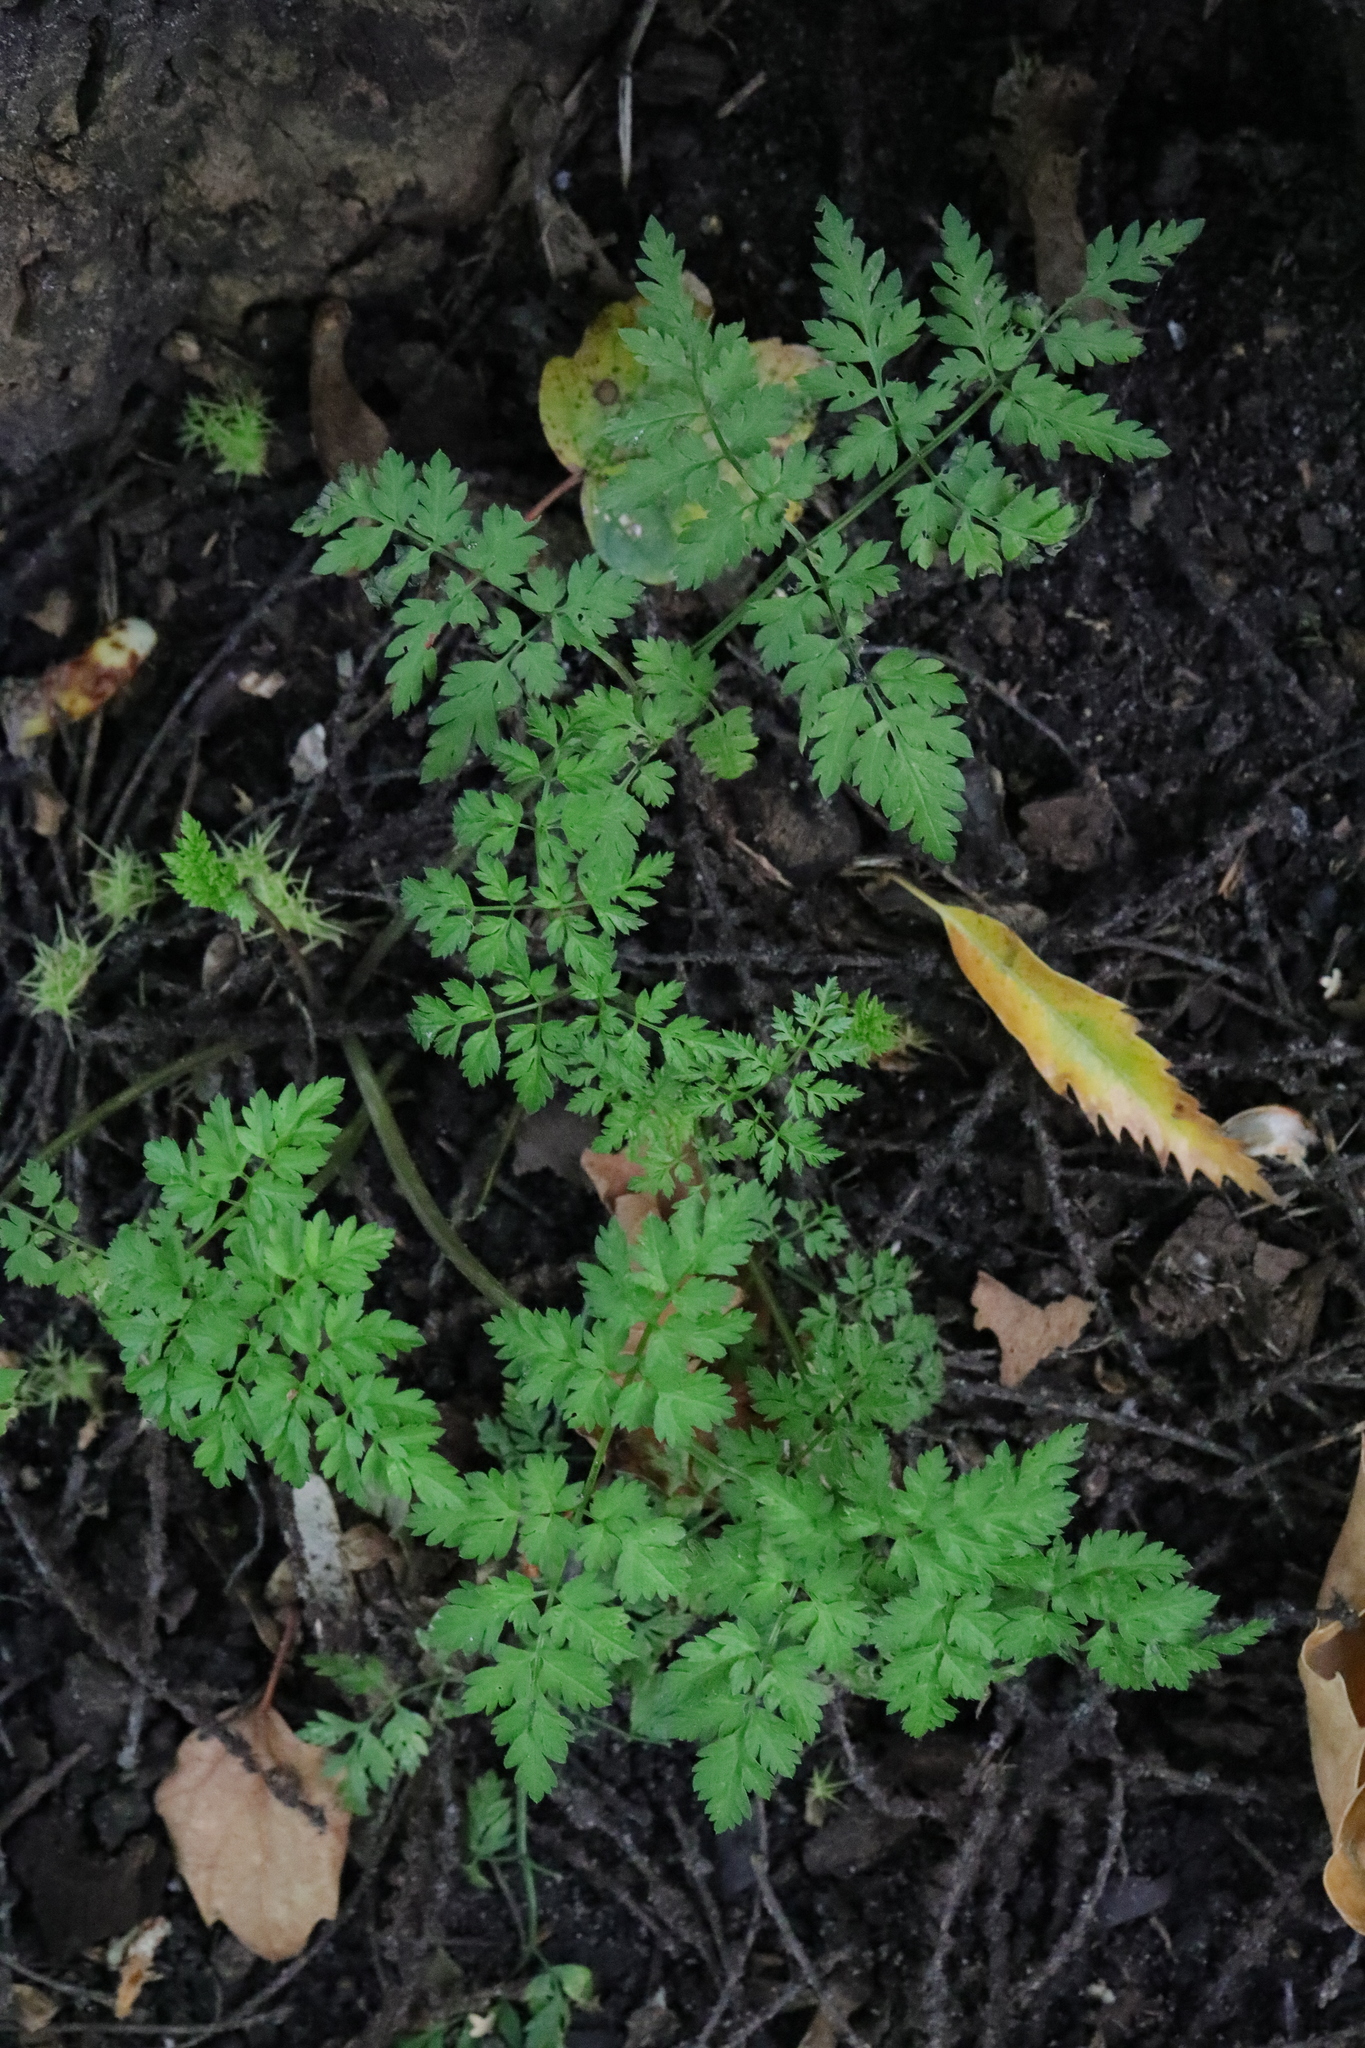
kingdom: Plantae
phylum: Tracheophyta
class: Magnoliopsida
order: Apiales
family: Apiaceae
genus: Anthriscus
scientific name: Anthriscus sylvestris
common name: Cow parsley
